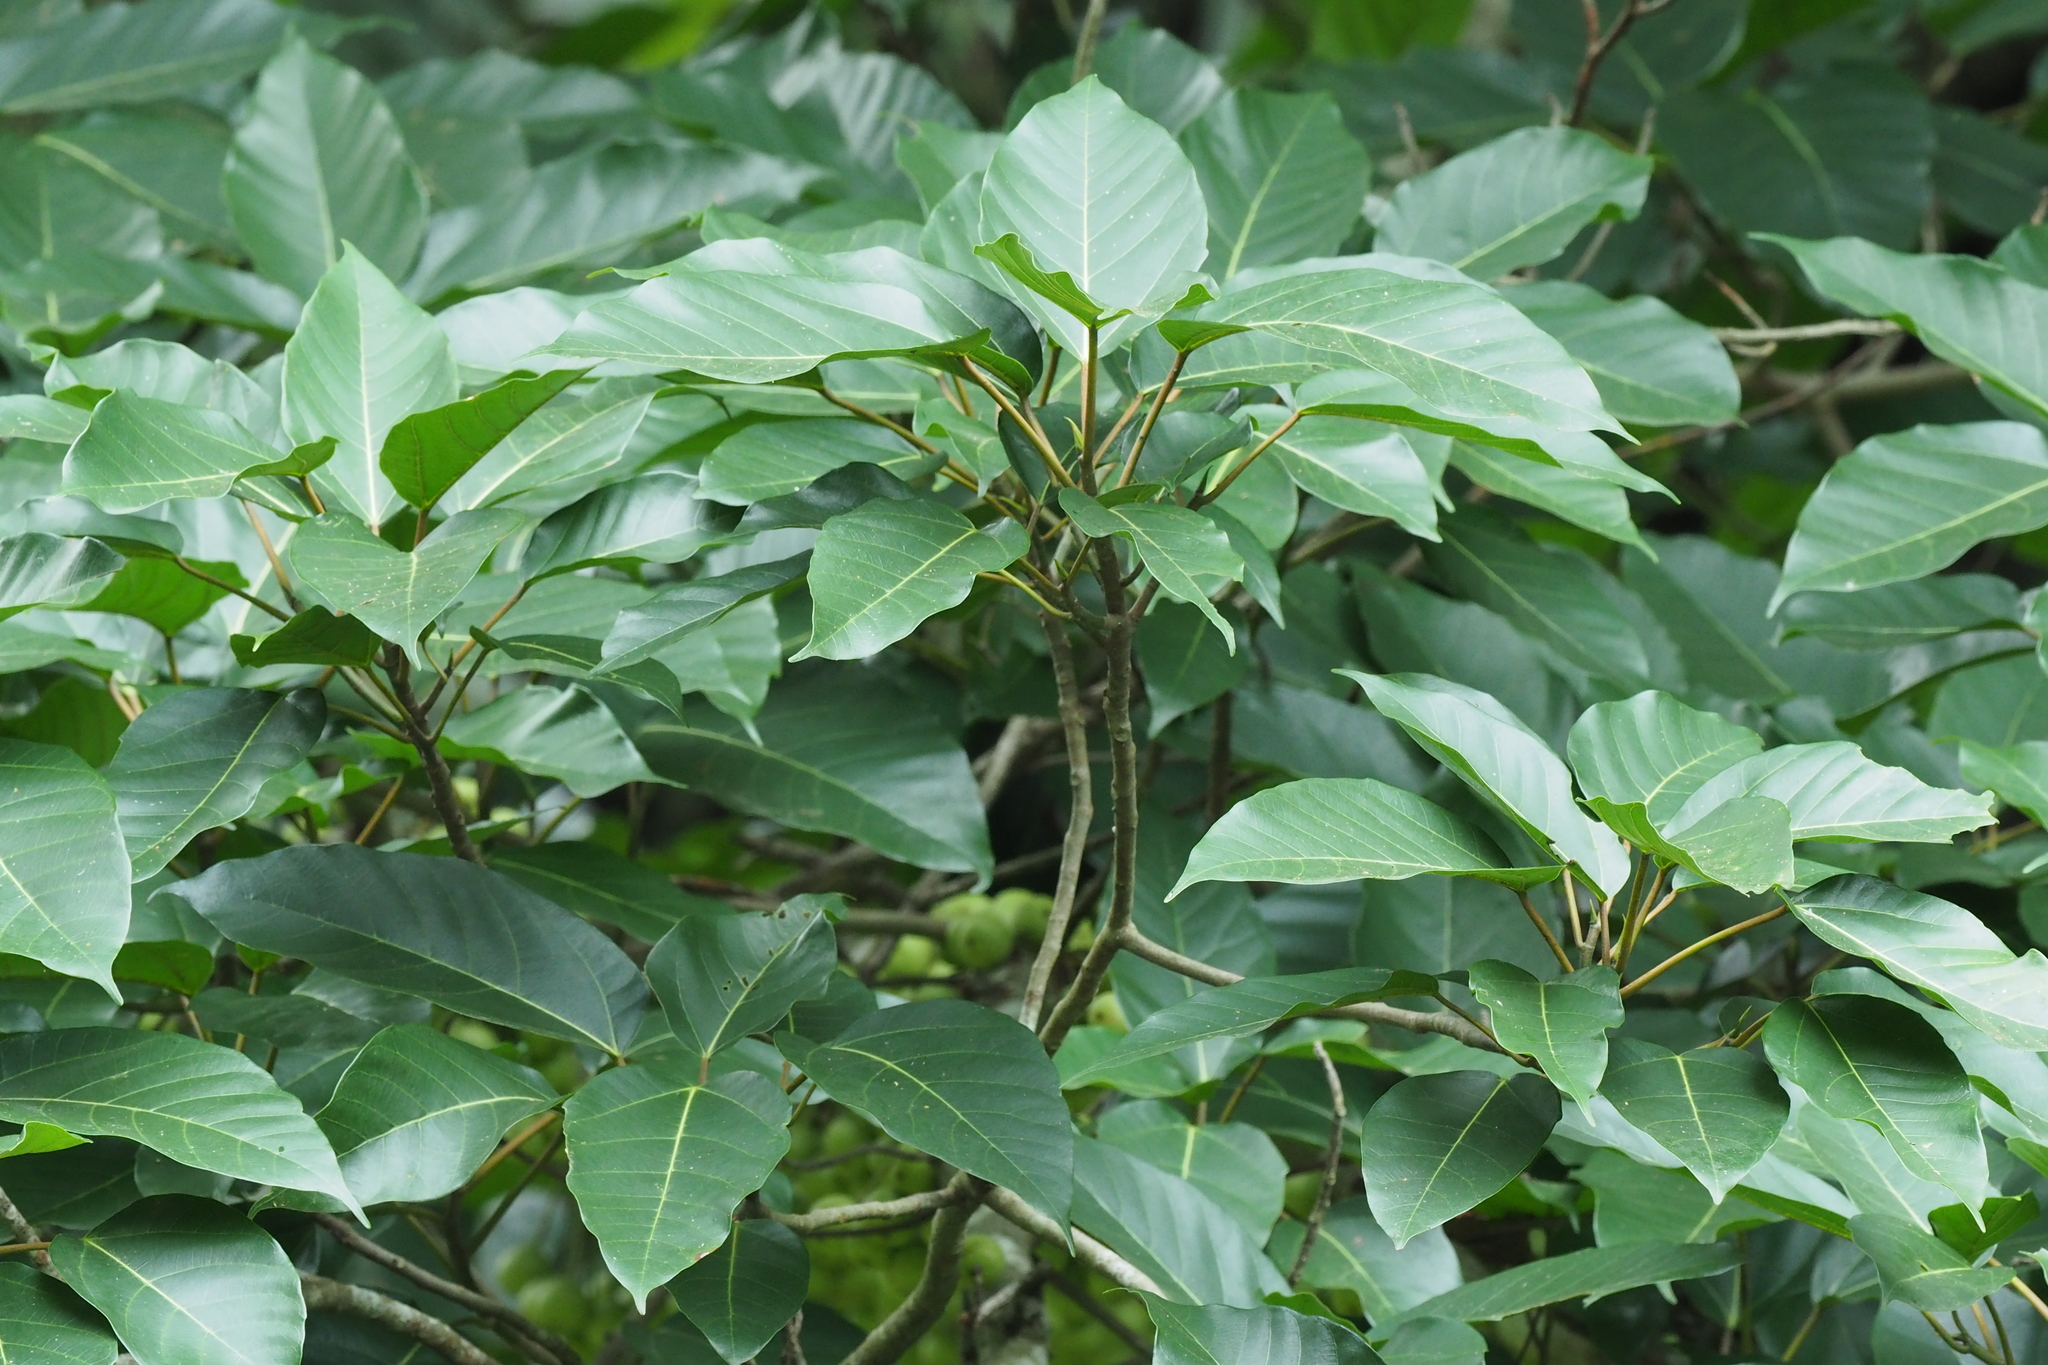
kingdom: Plantae
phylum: Tracheophyta
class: Magnoliopsida
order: Rosales
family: Moraceae
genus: Ficus
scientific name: Ficus variegata
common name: Variegated fig
